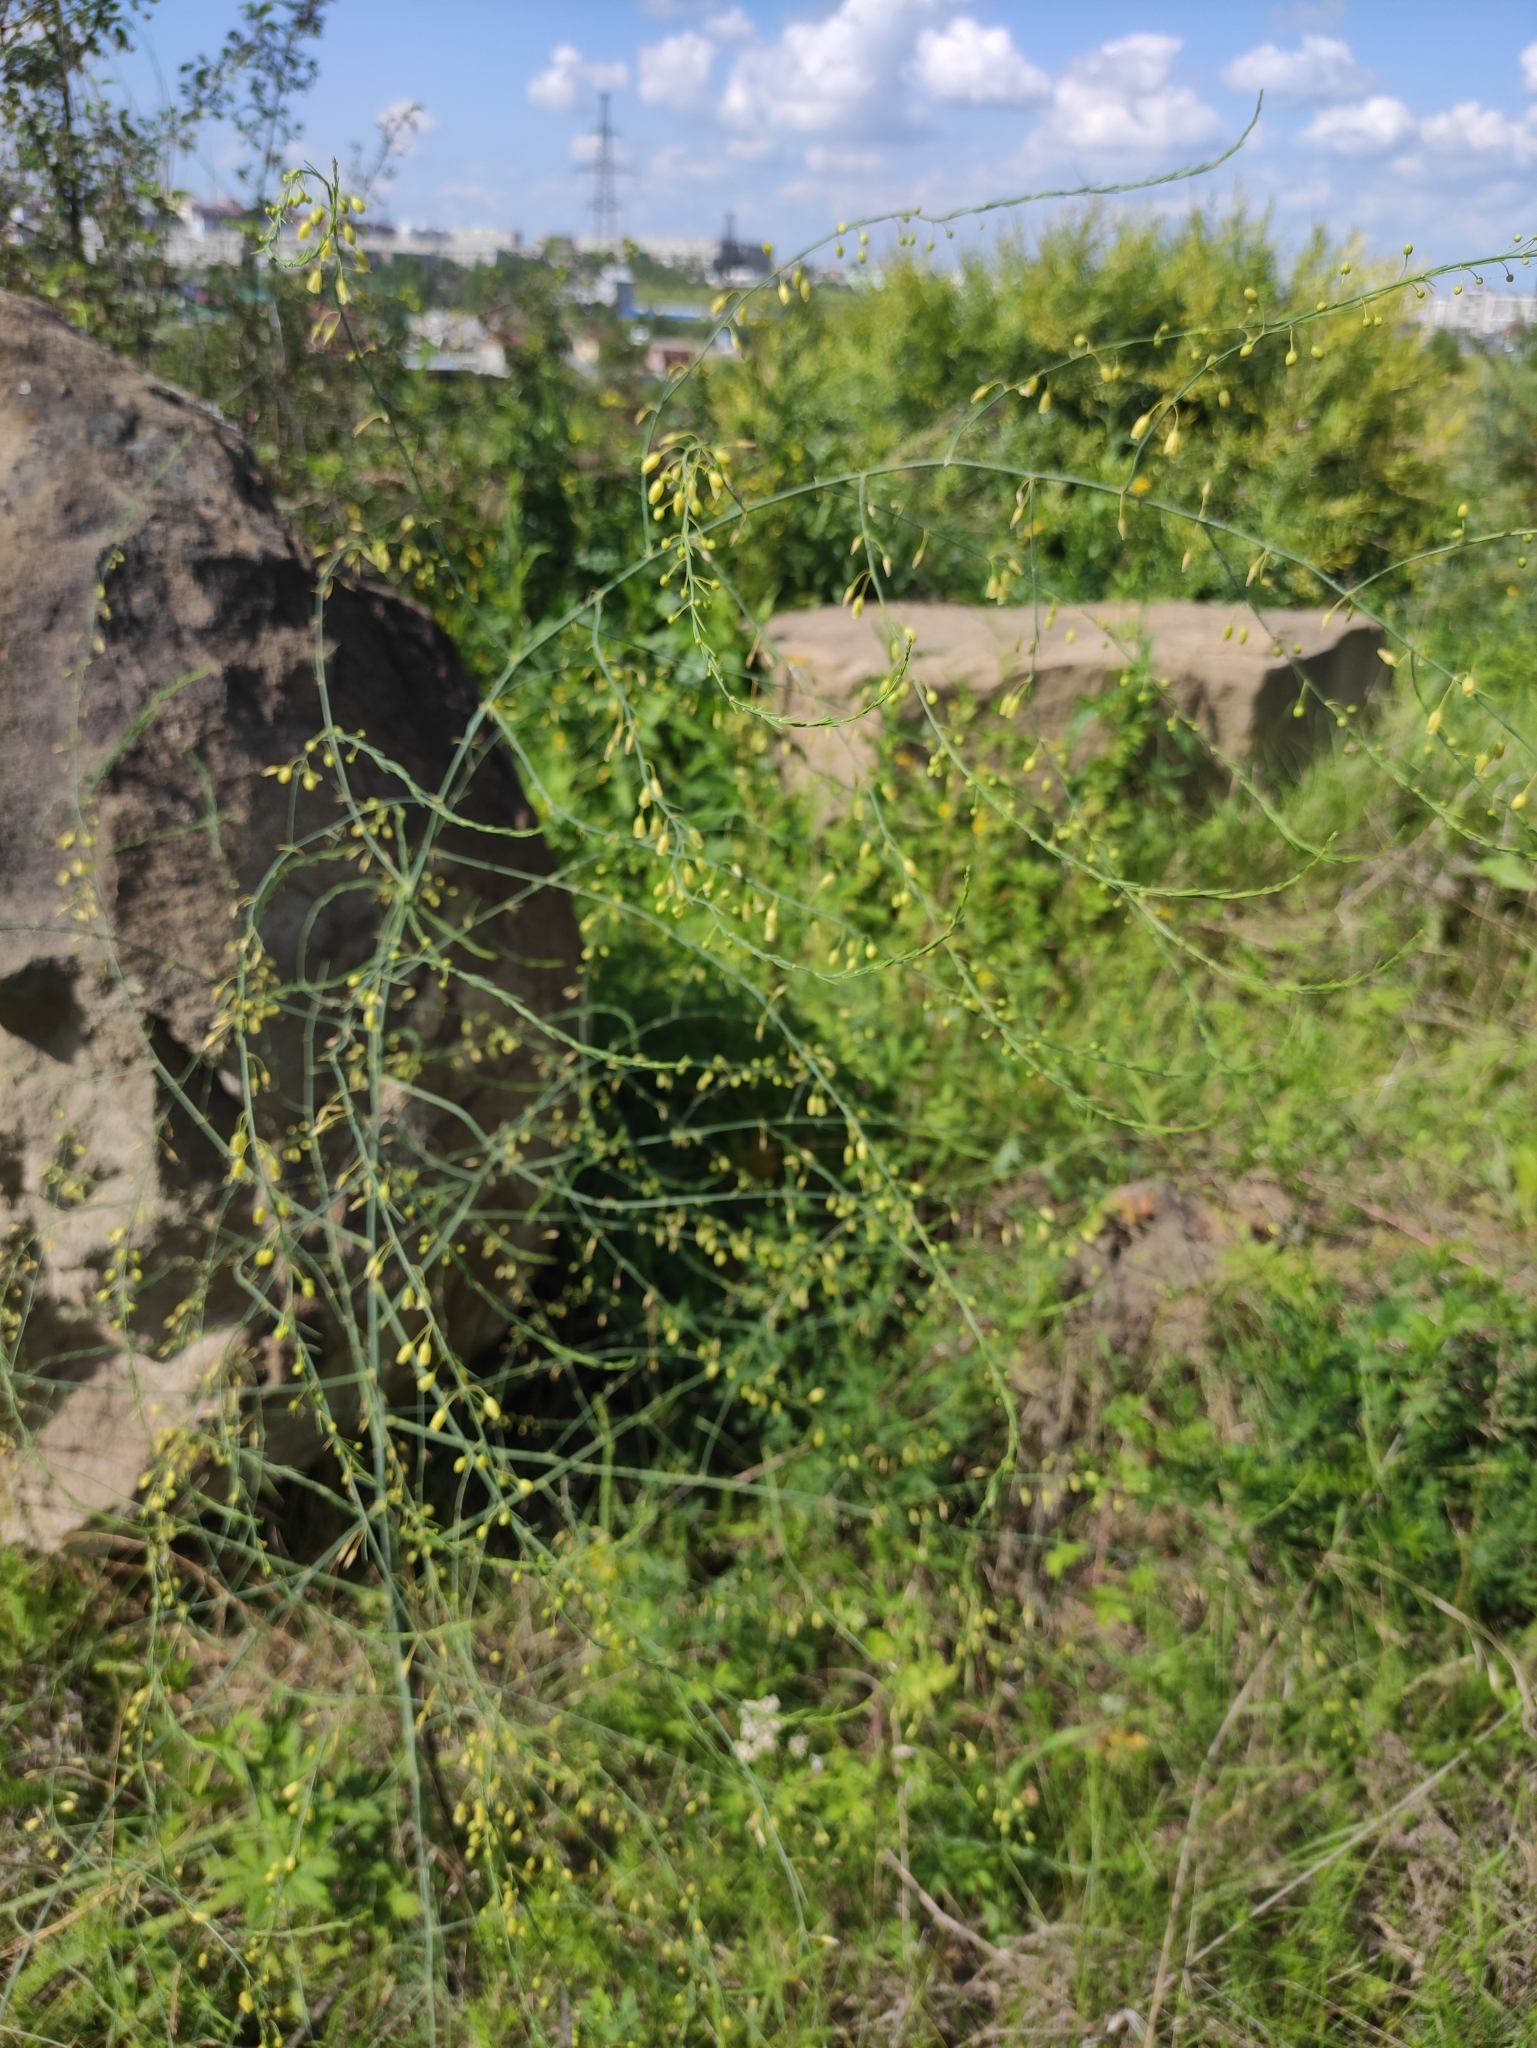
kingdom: Plantae
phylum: Tracheophyta
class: Liliopsida
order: Asparagales
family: Asparagaceae
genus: Asparagus
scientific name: Asparagus officinalis
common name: Garden asparagus
